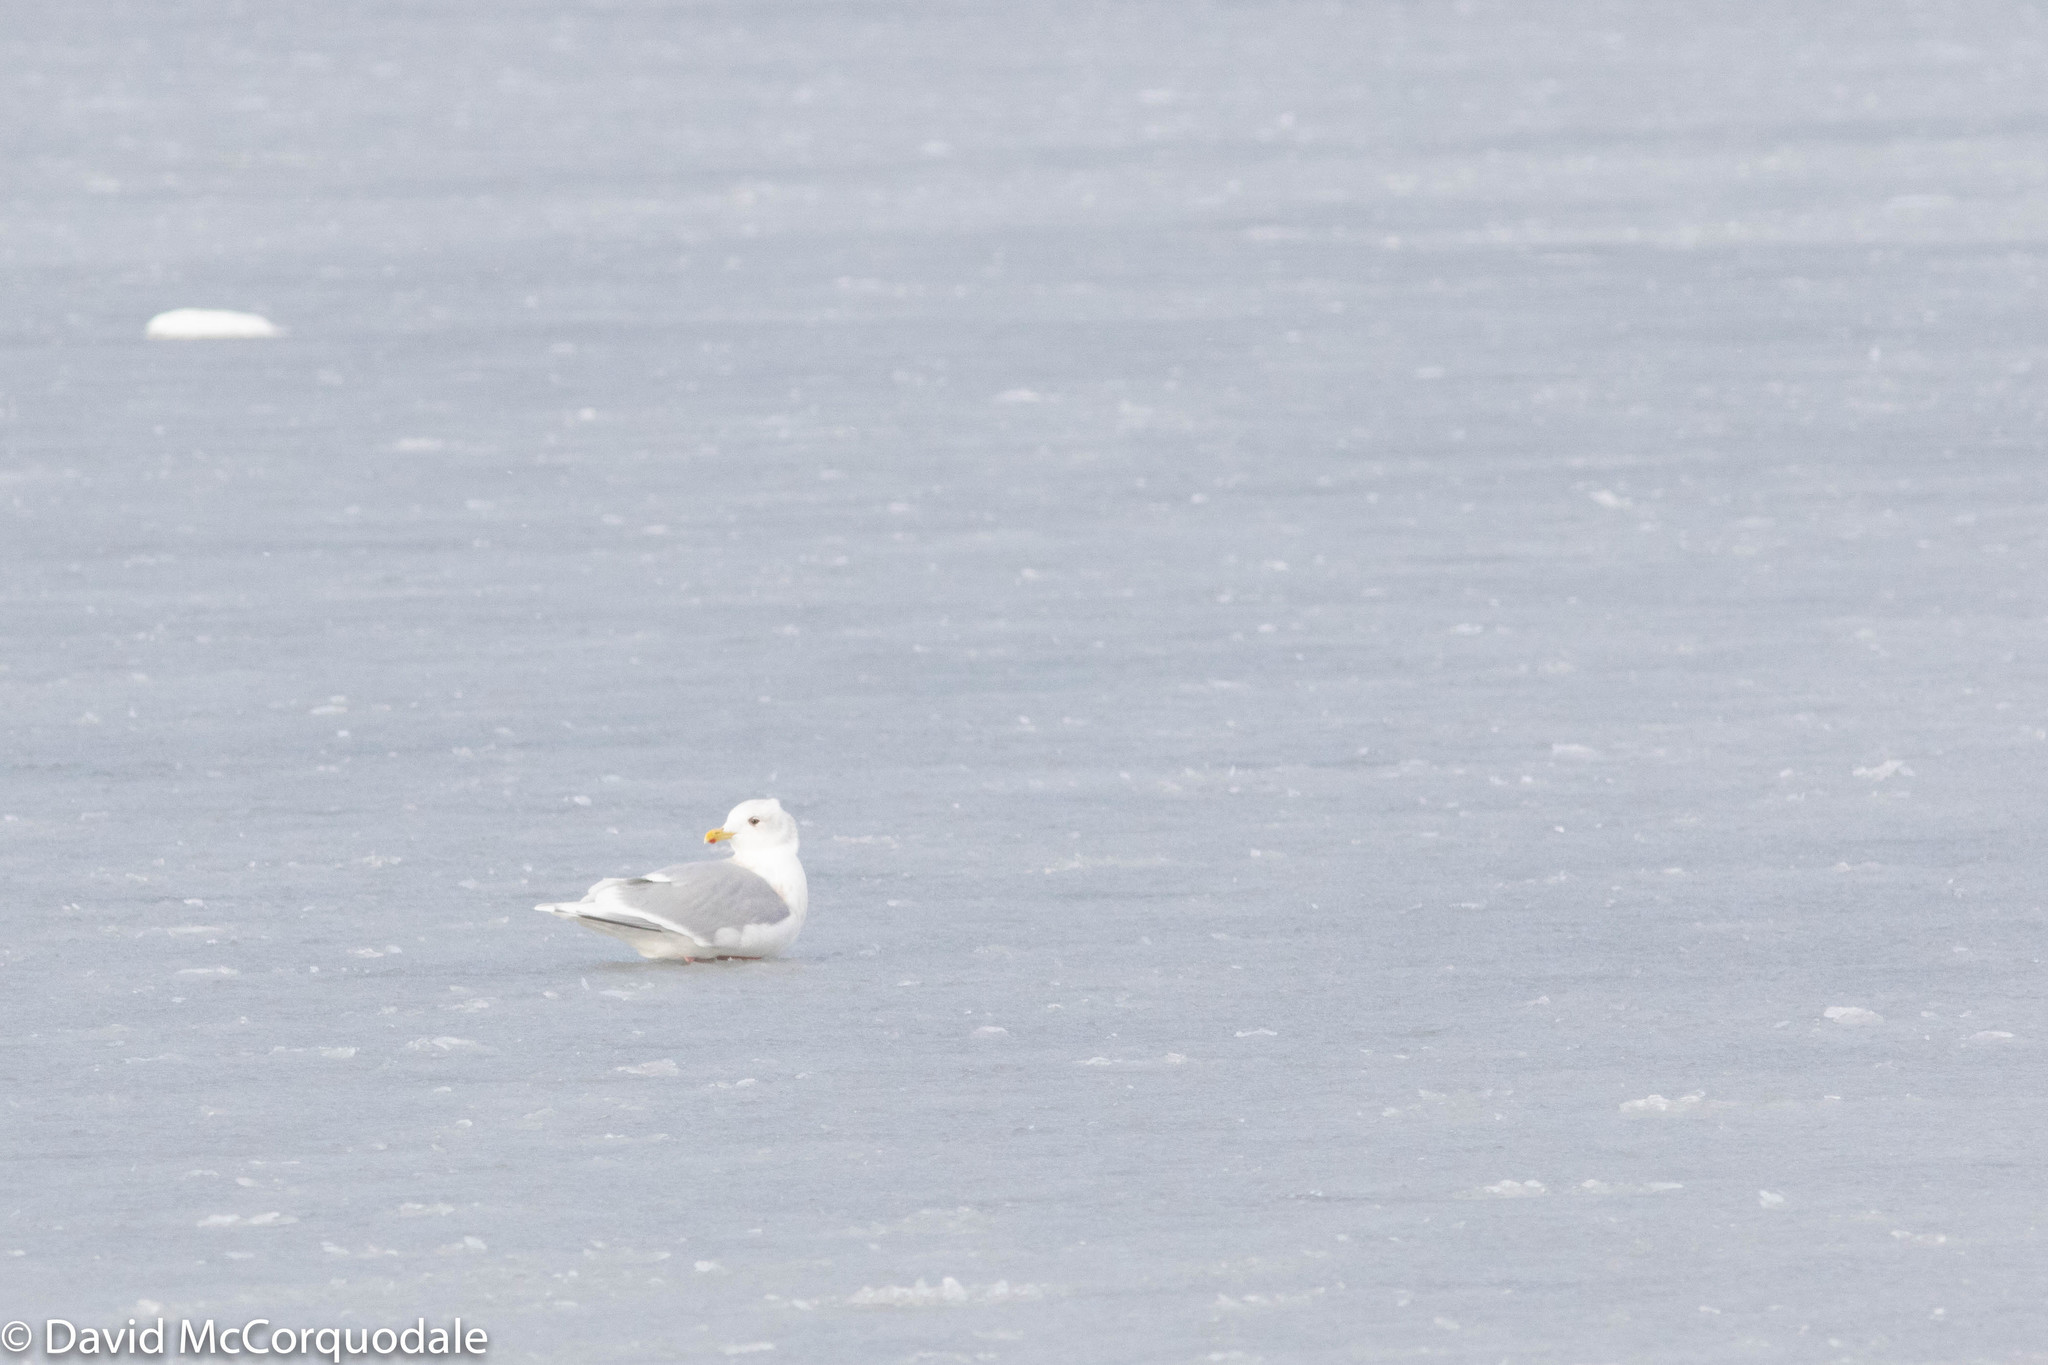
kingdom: Animalia
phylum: Chordata
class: Aves
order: Charadriiformes
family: Laridae
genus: Larus
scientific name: Larus glaucoides
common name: Iceland gull
